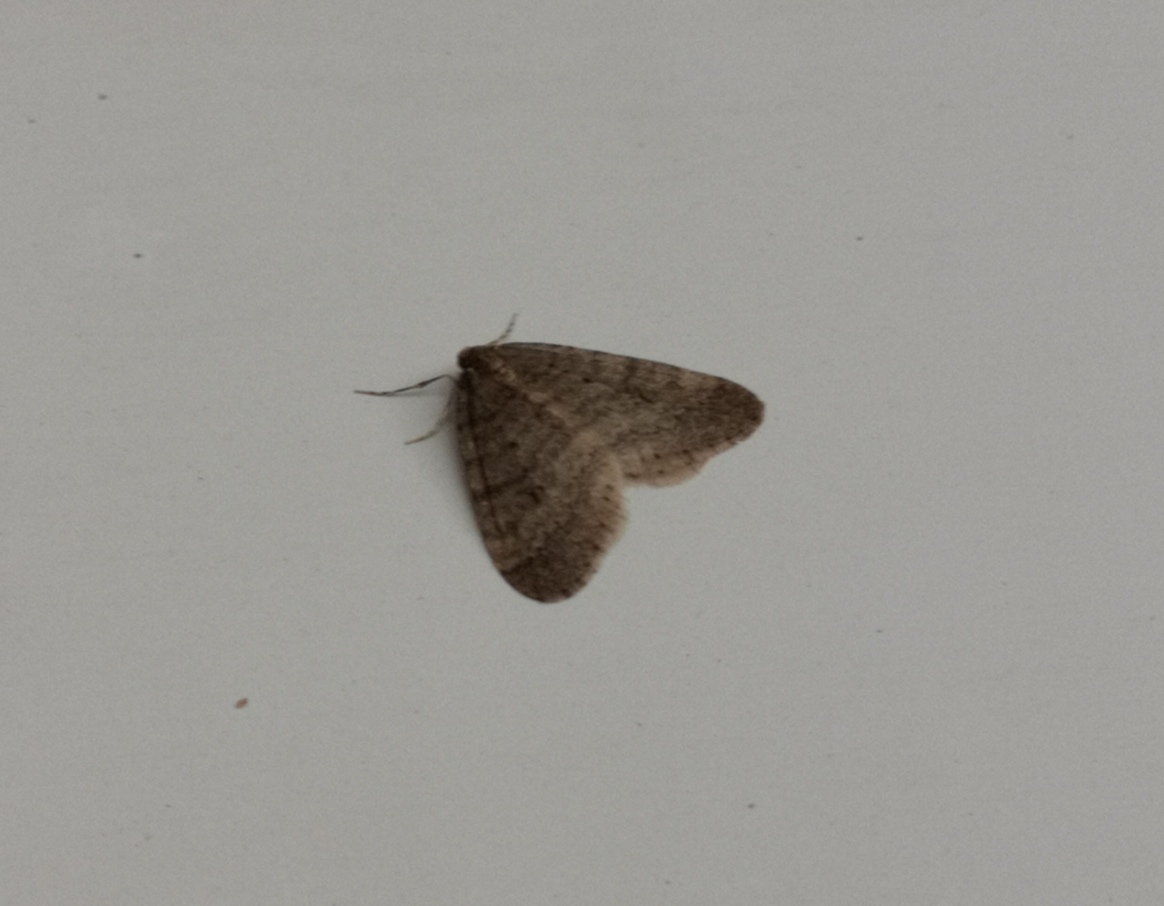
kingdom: Animalia
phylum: Arthropoda
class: Insecta
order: Lepidoptera
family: Geometridae
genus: Operophtera
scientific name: Operophtera brumata
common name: Winter moth
